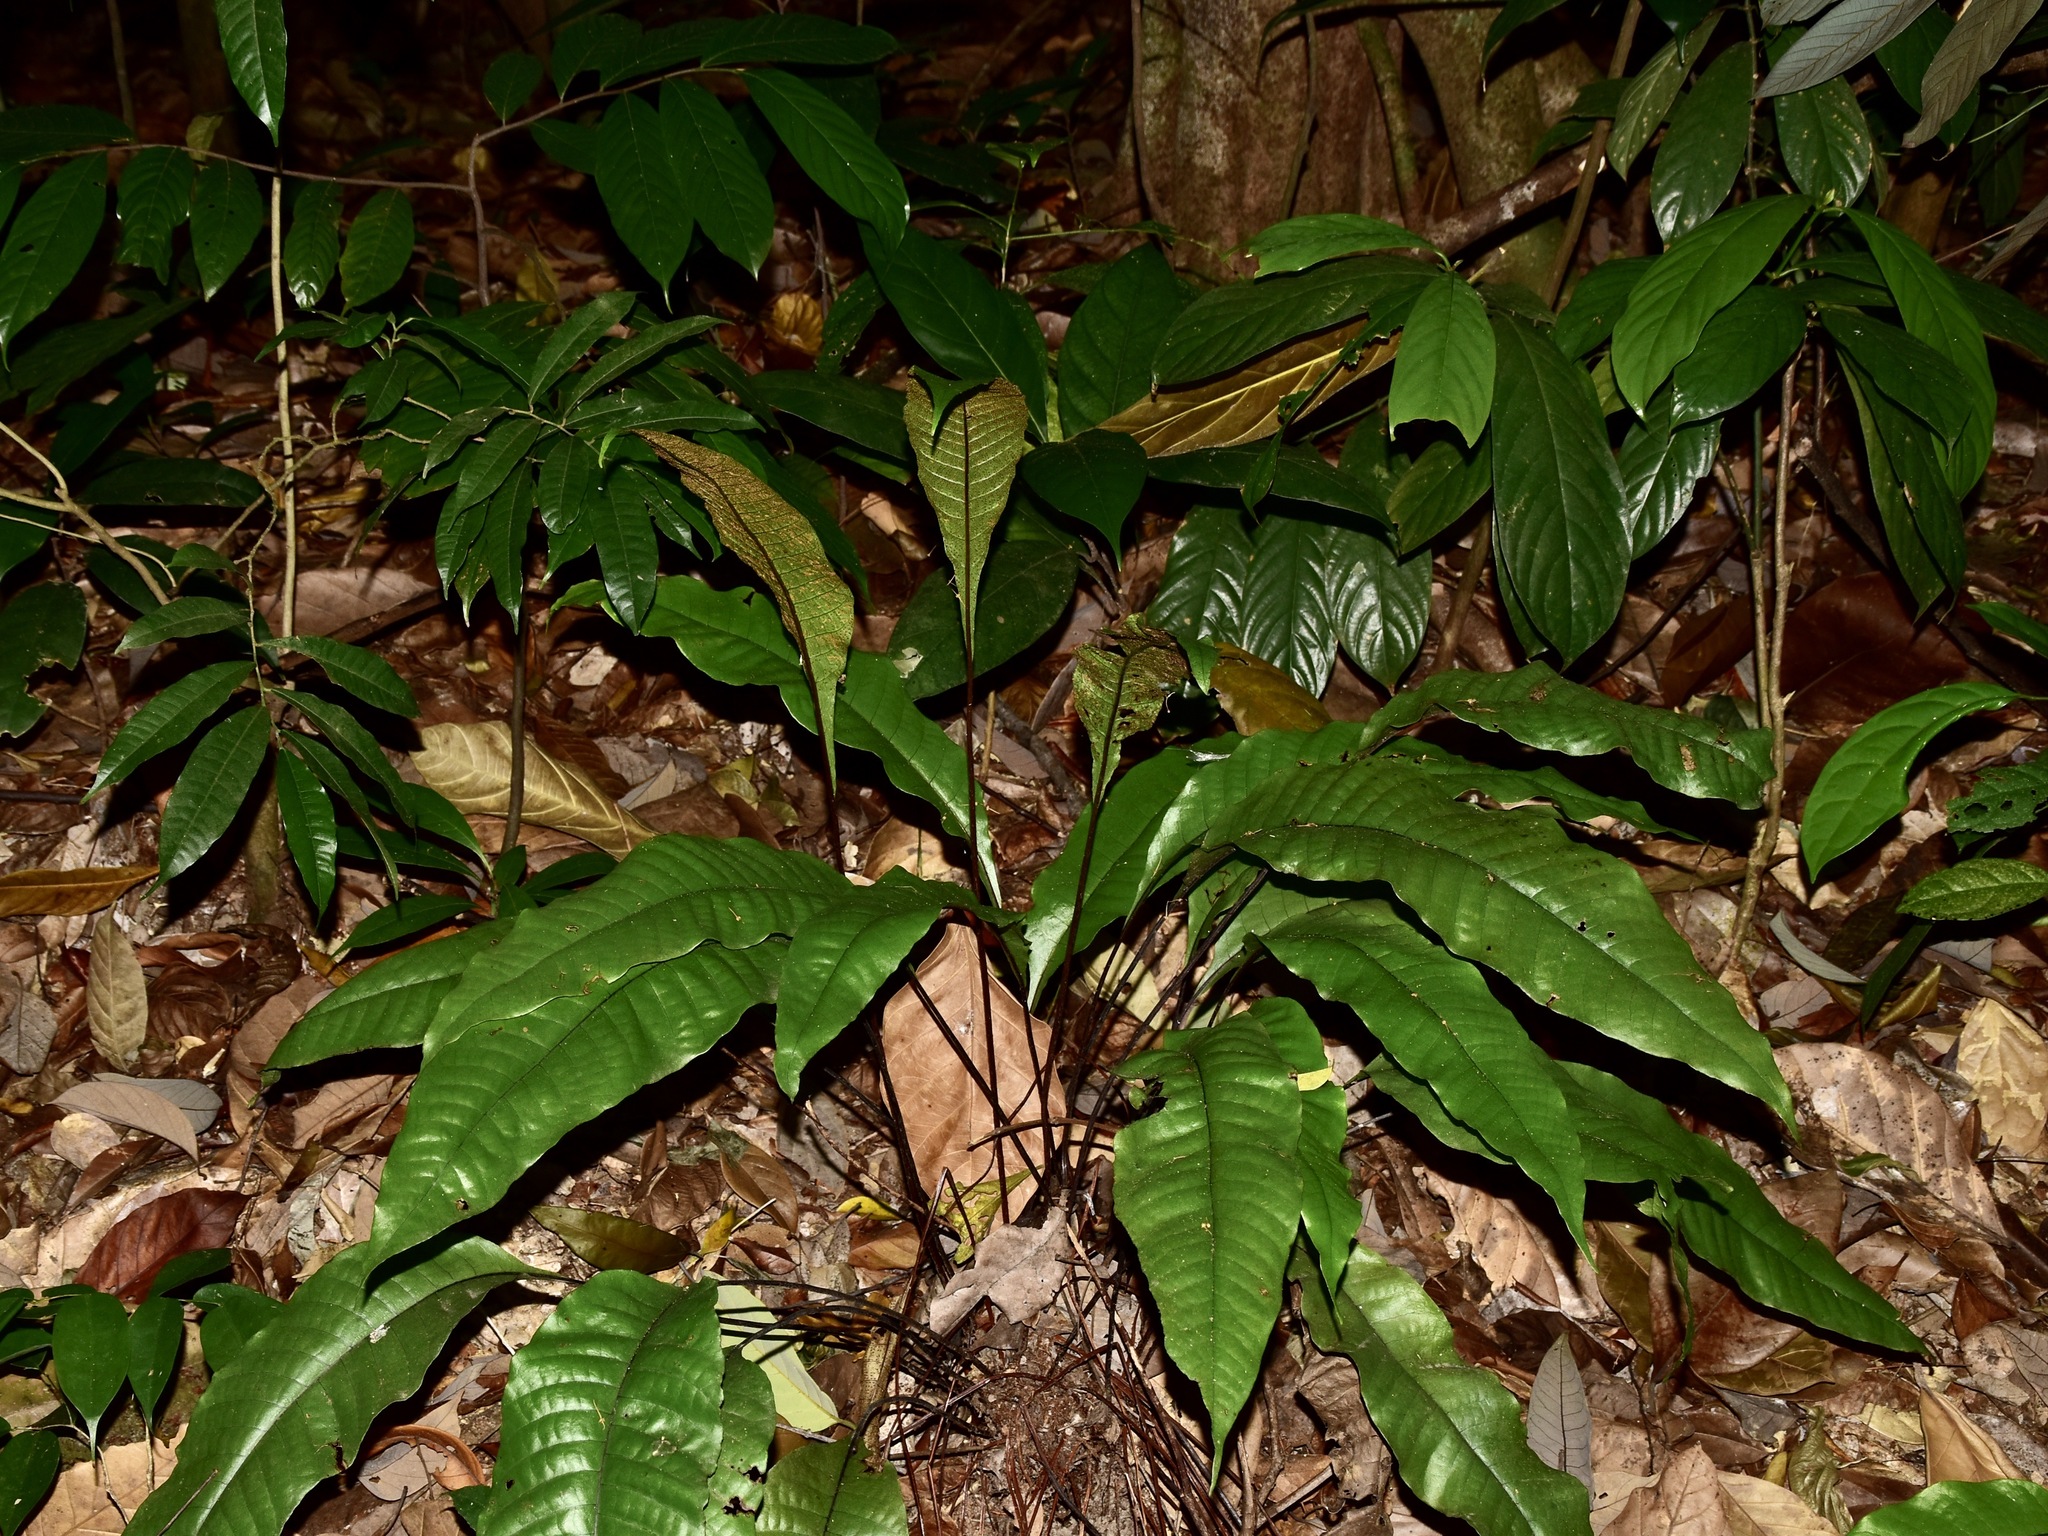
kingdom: Plantae
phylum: Tracheophyta
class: Polypodiopsida
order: Polypodiales
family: Tectariaceae
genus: Tectaria
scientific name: Tectaria singaporiana
